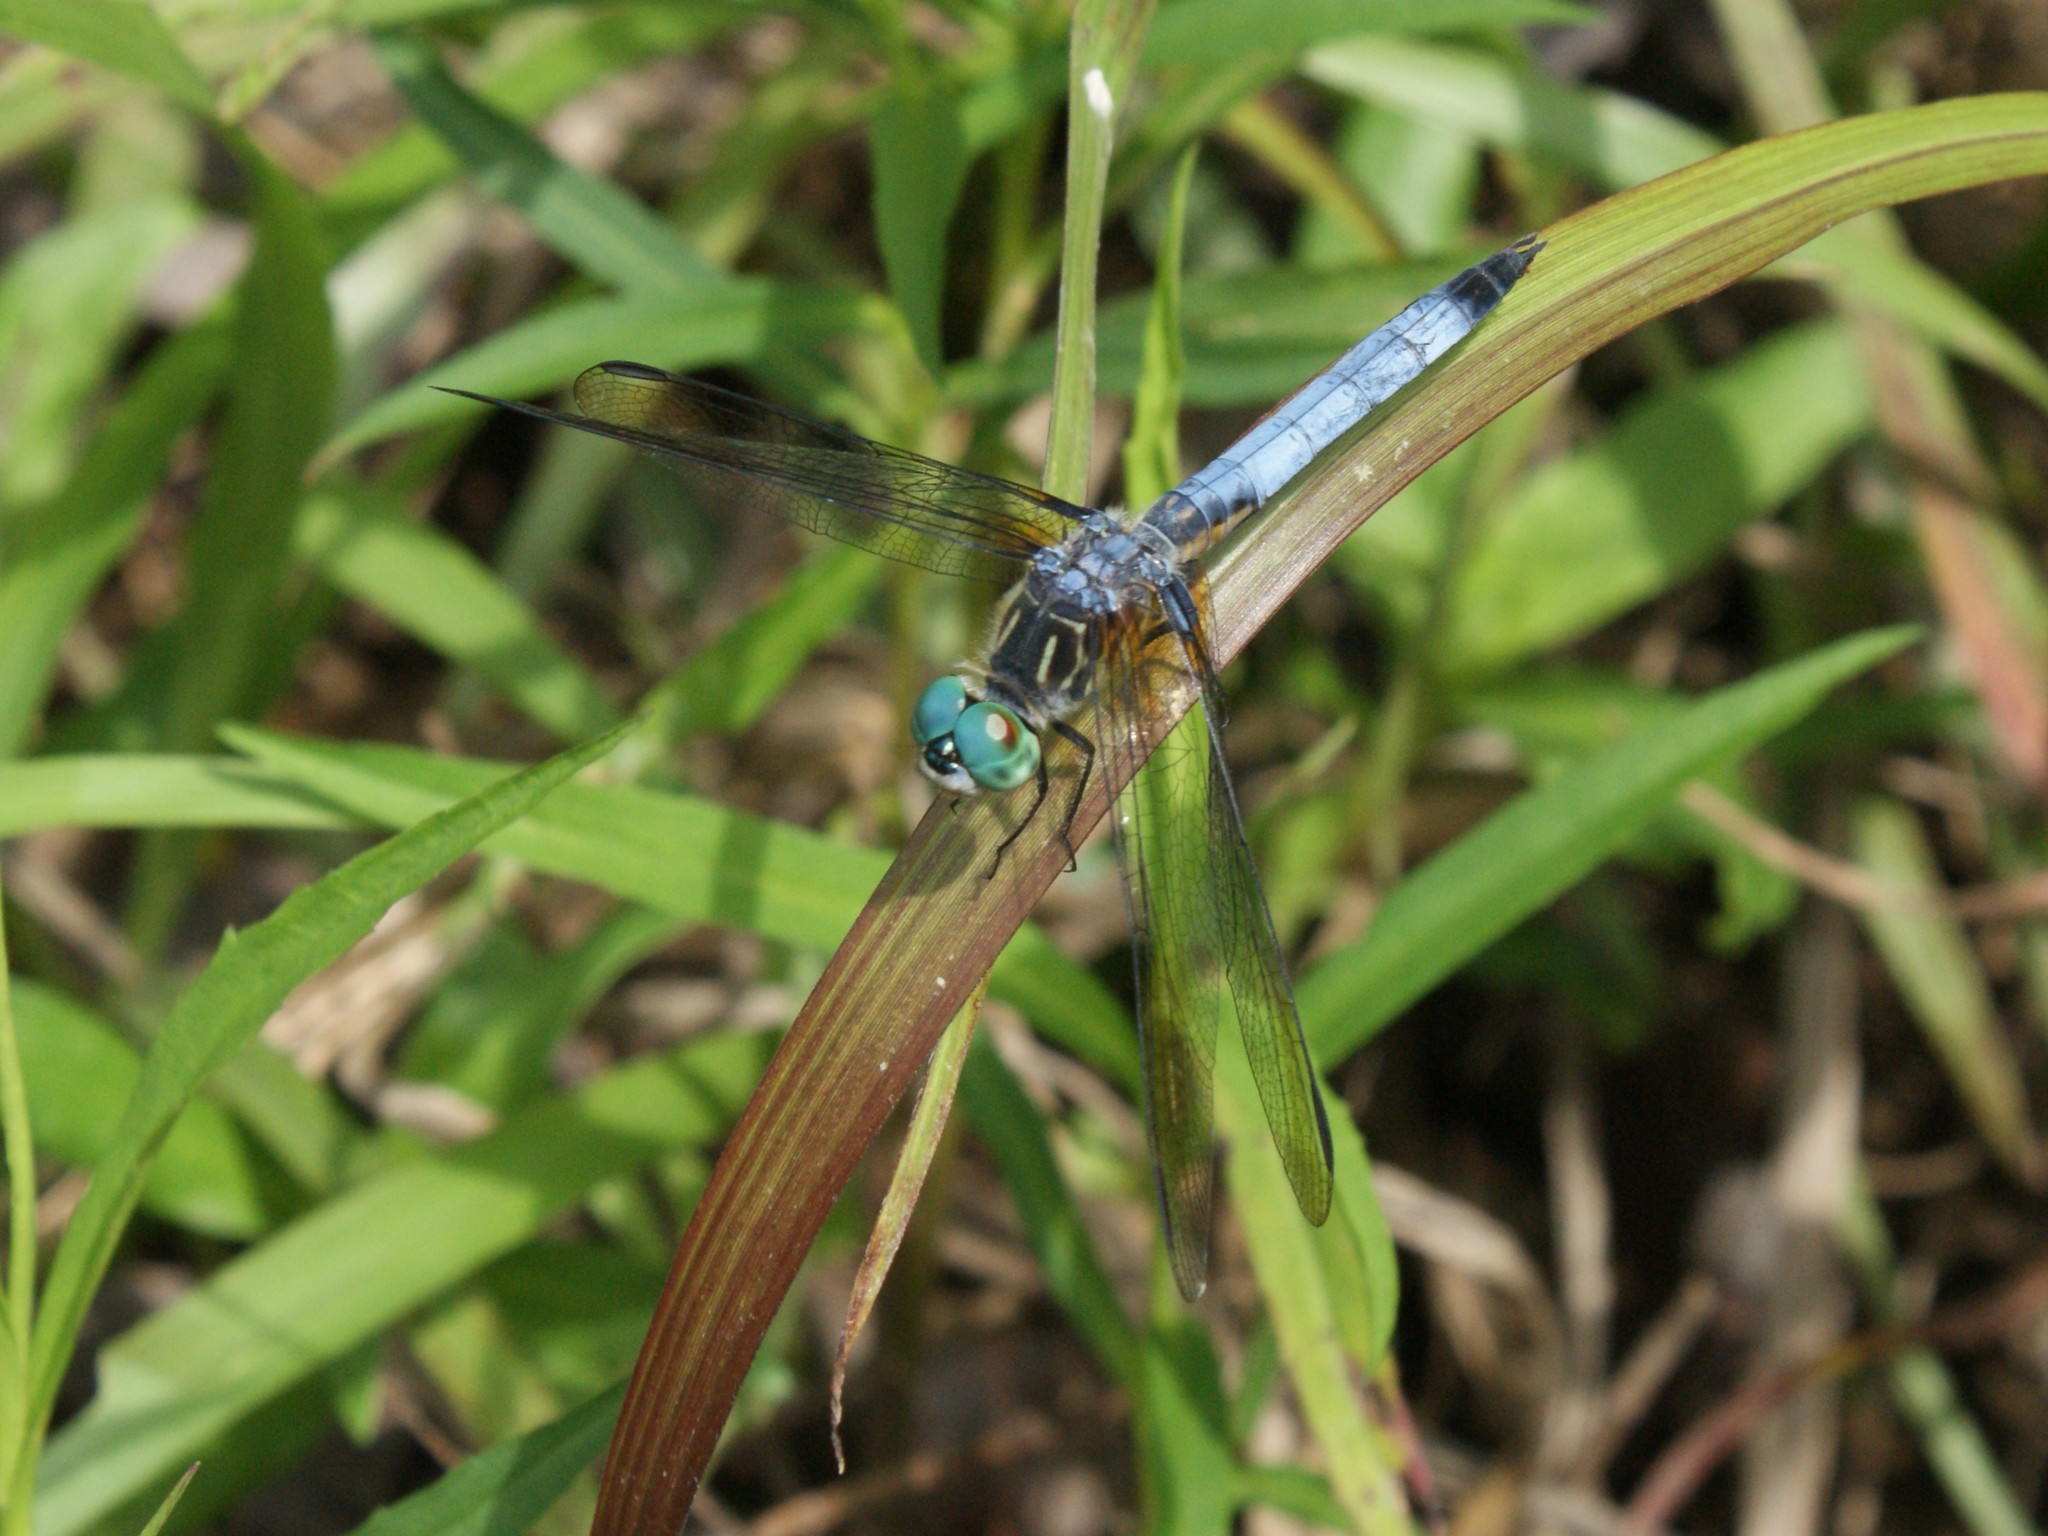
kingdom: Animalia
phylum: Arthropoda
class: Insecta
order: Odonata
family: Libellulidae
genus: Pachydiplax
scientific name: Pachydiplax longipennis
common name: Blue dasher
